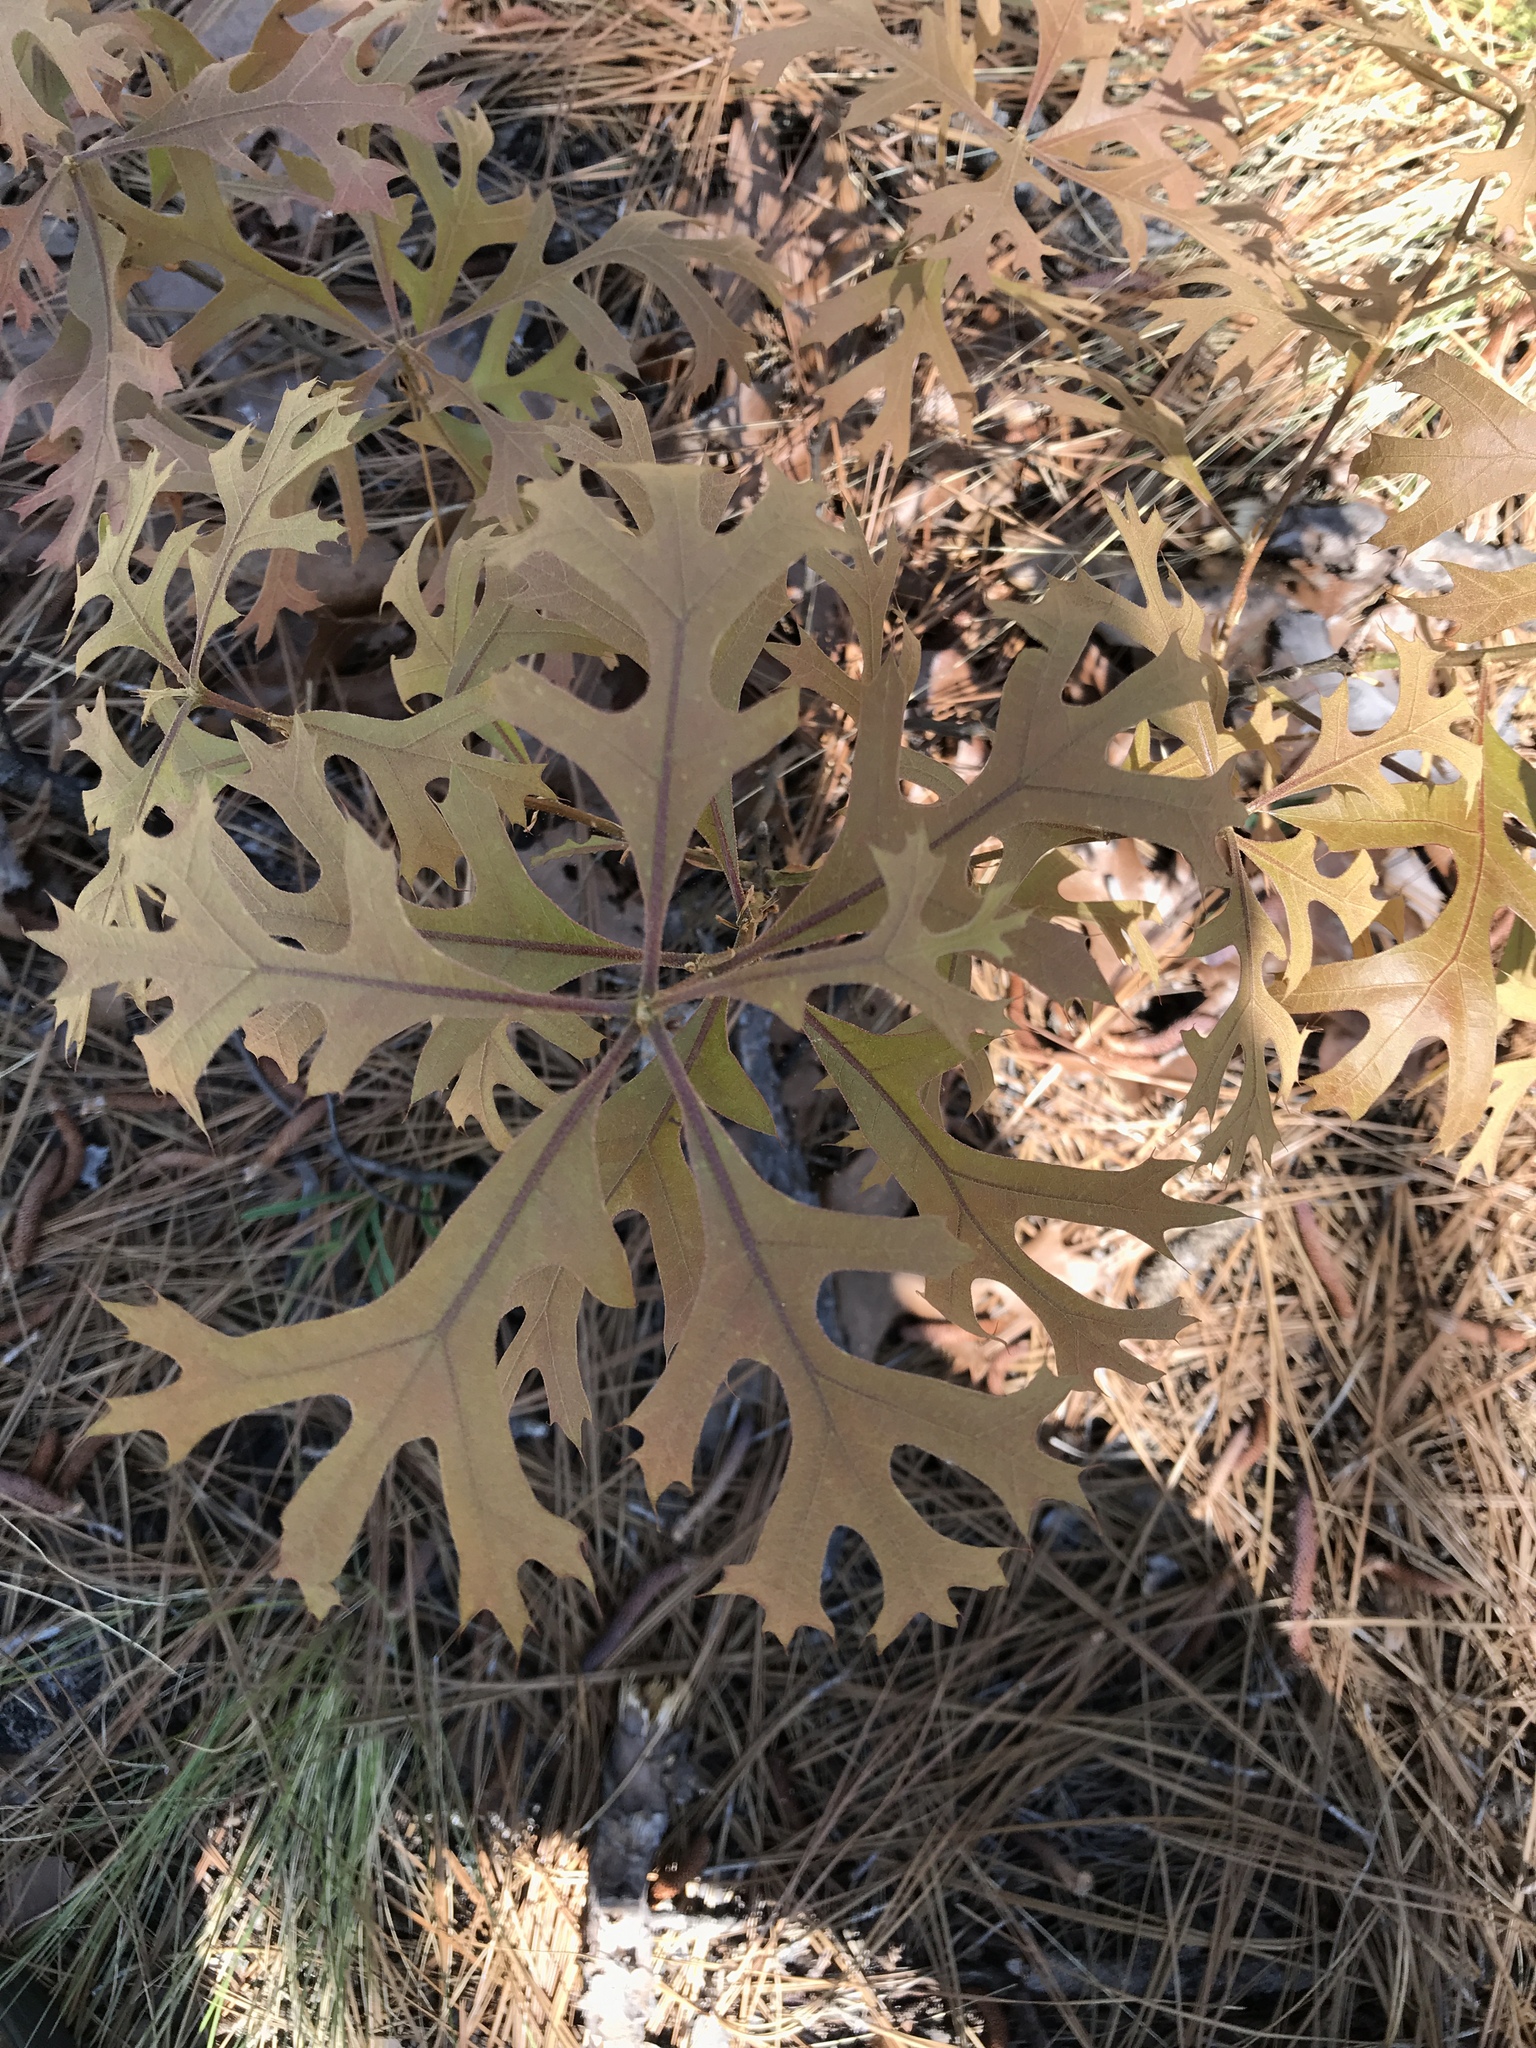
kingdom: Plantae
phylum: Tracheophyta
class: Magnoliopsida
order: Fagales
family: Fagaceae
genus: Quercus
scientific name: Quercus laevis
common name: Turkey oak
